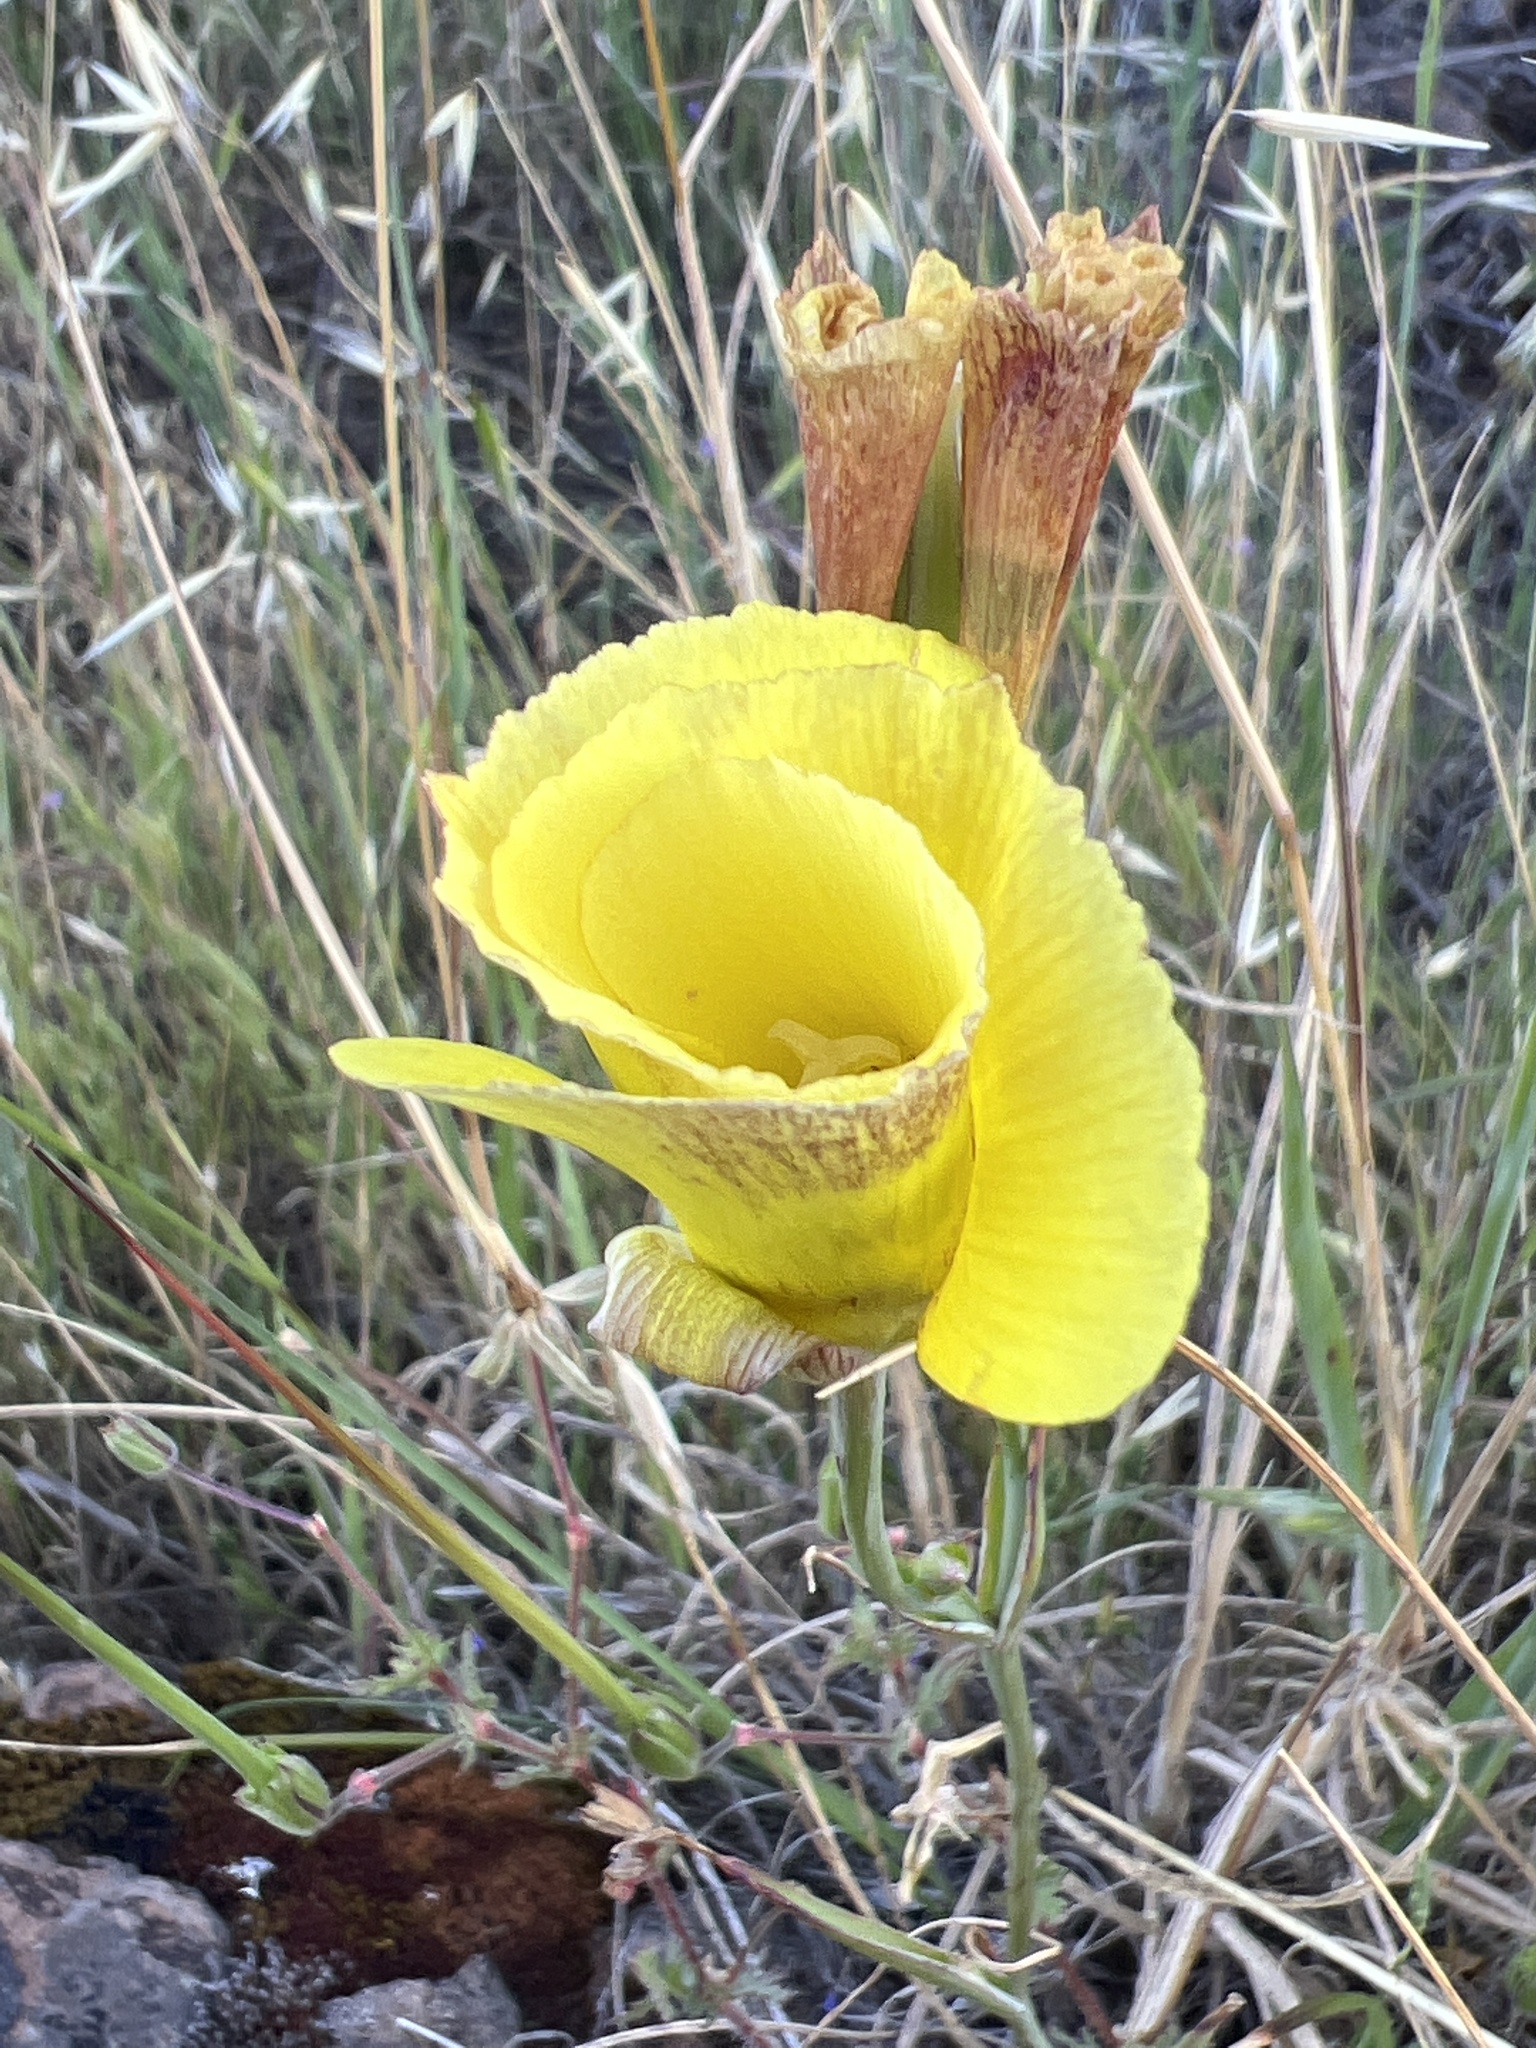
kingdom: Plantae
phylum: Tracheophyta
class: Liliopsida
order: Liliales
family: Liliaceae
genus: Calochortus
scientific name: Calochortus luteus
